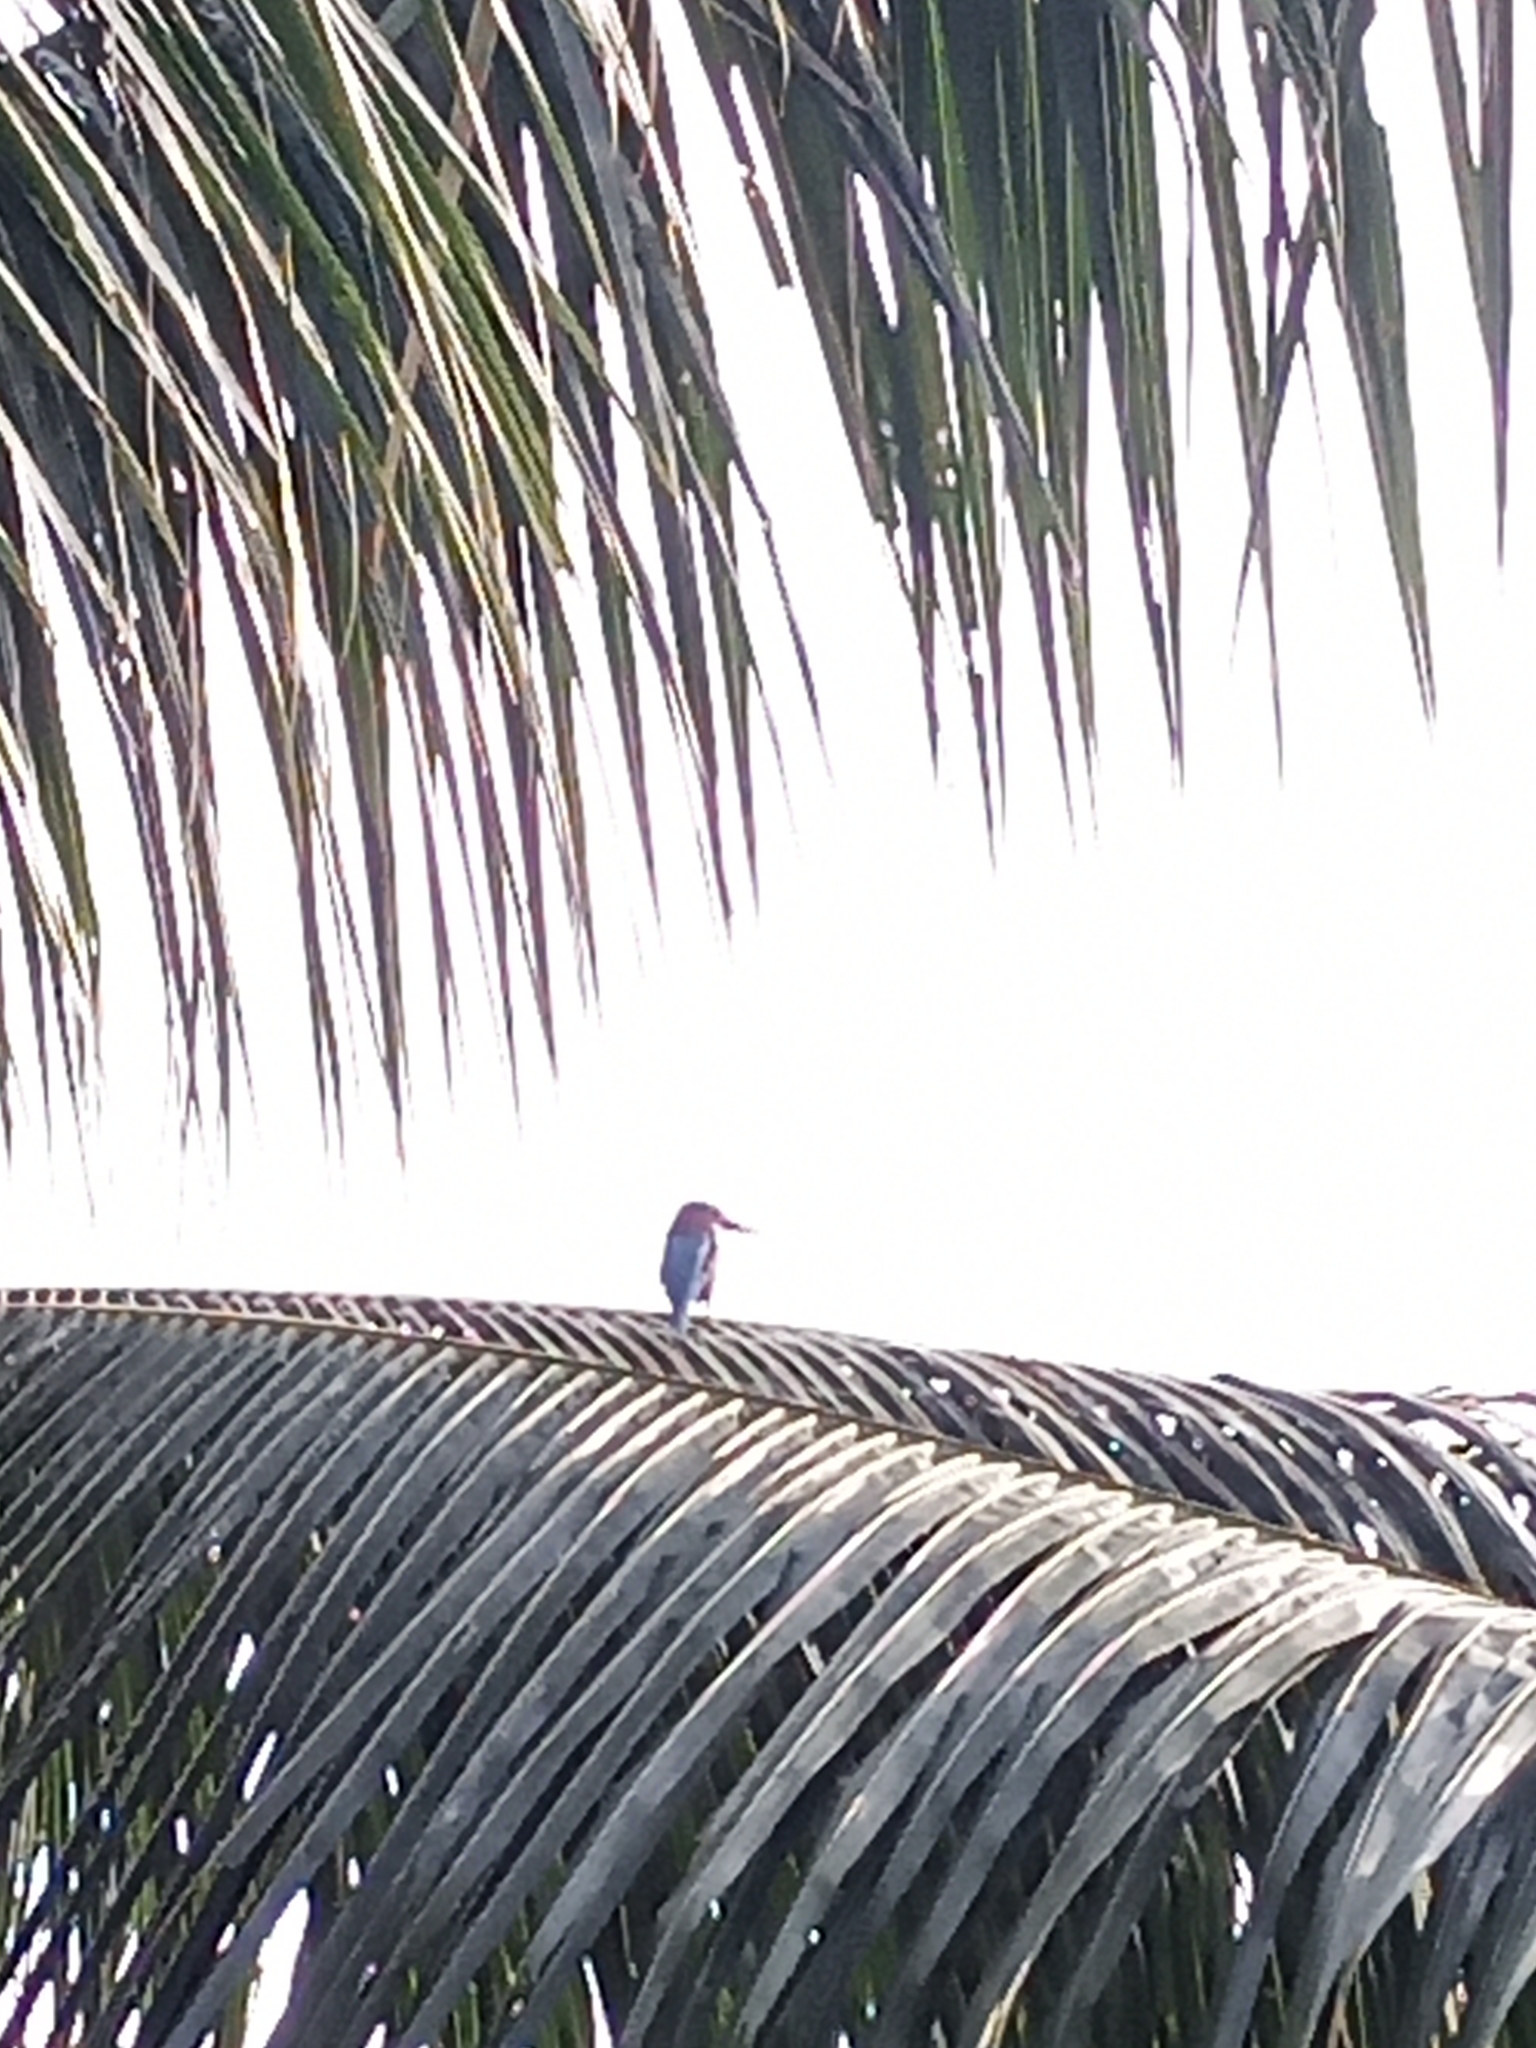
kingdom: Animalia
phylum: Chordata
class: Aves
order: Coraciiformes
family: Alcedinidae
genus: Halcyon
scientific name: Halcyon smyrnensis
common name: White-throated kingfisher
